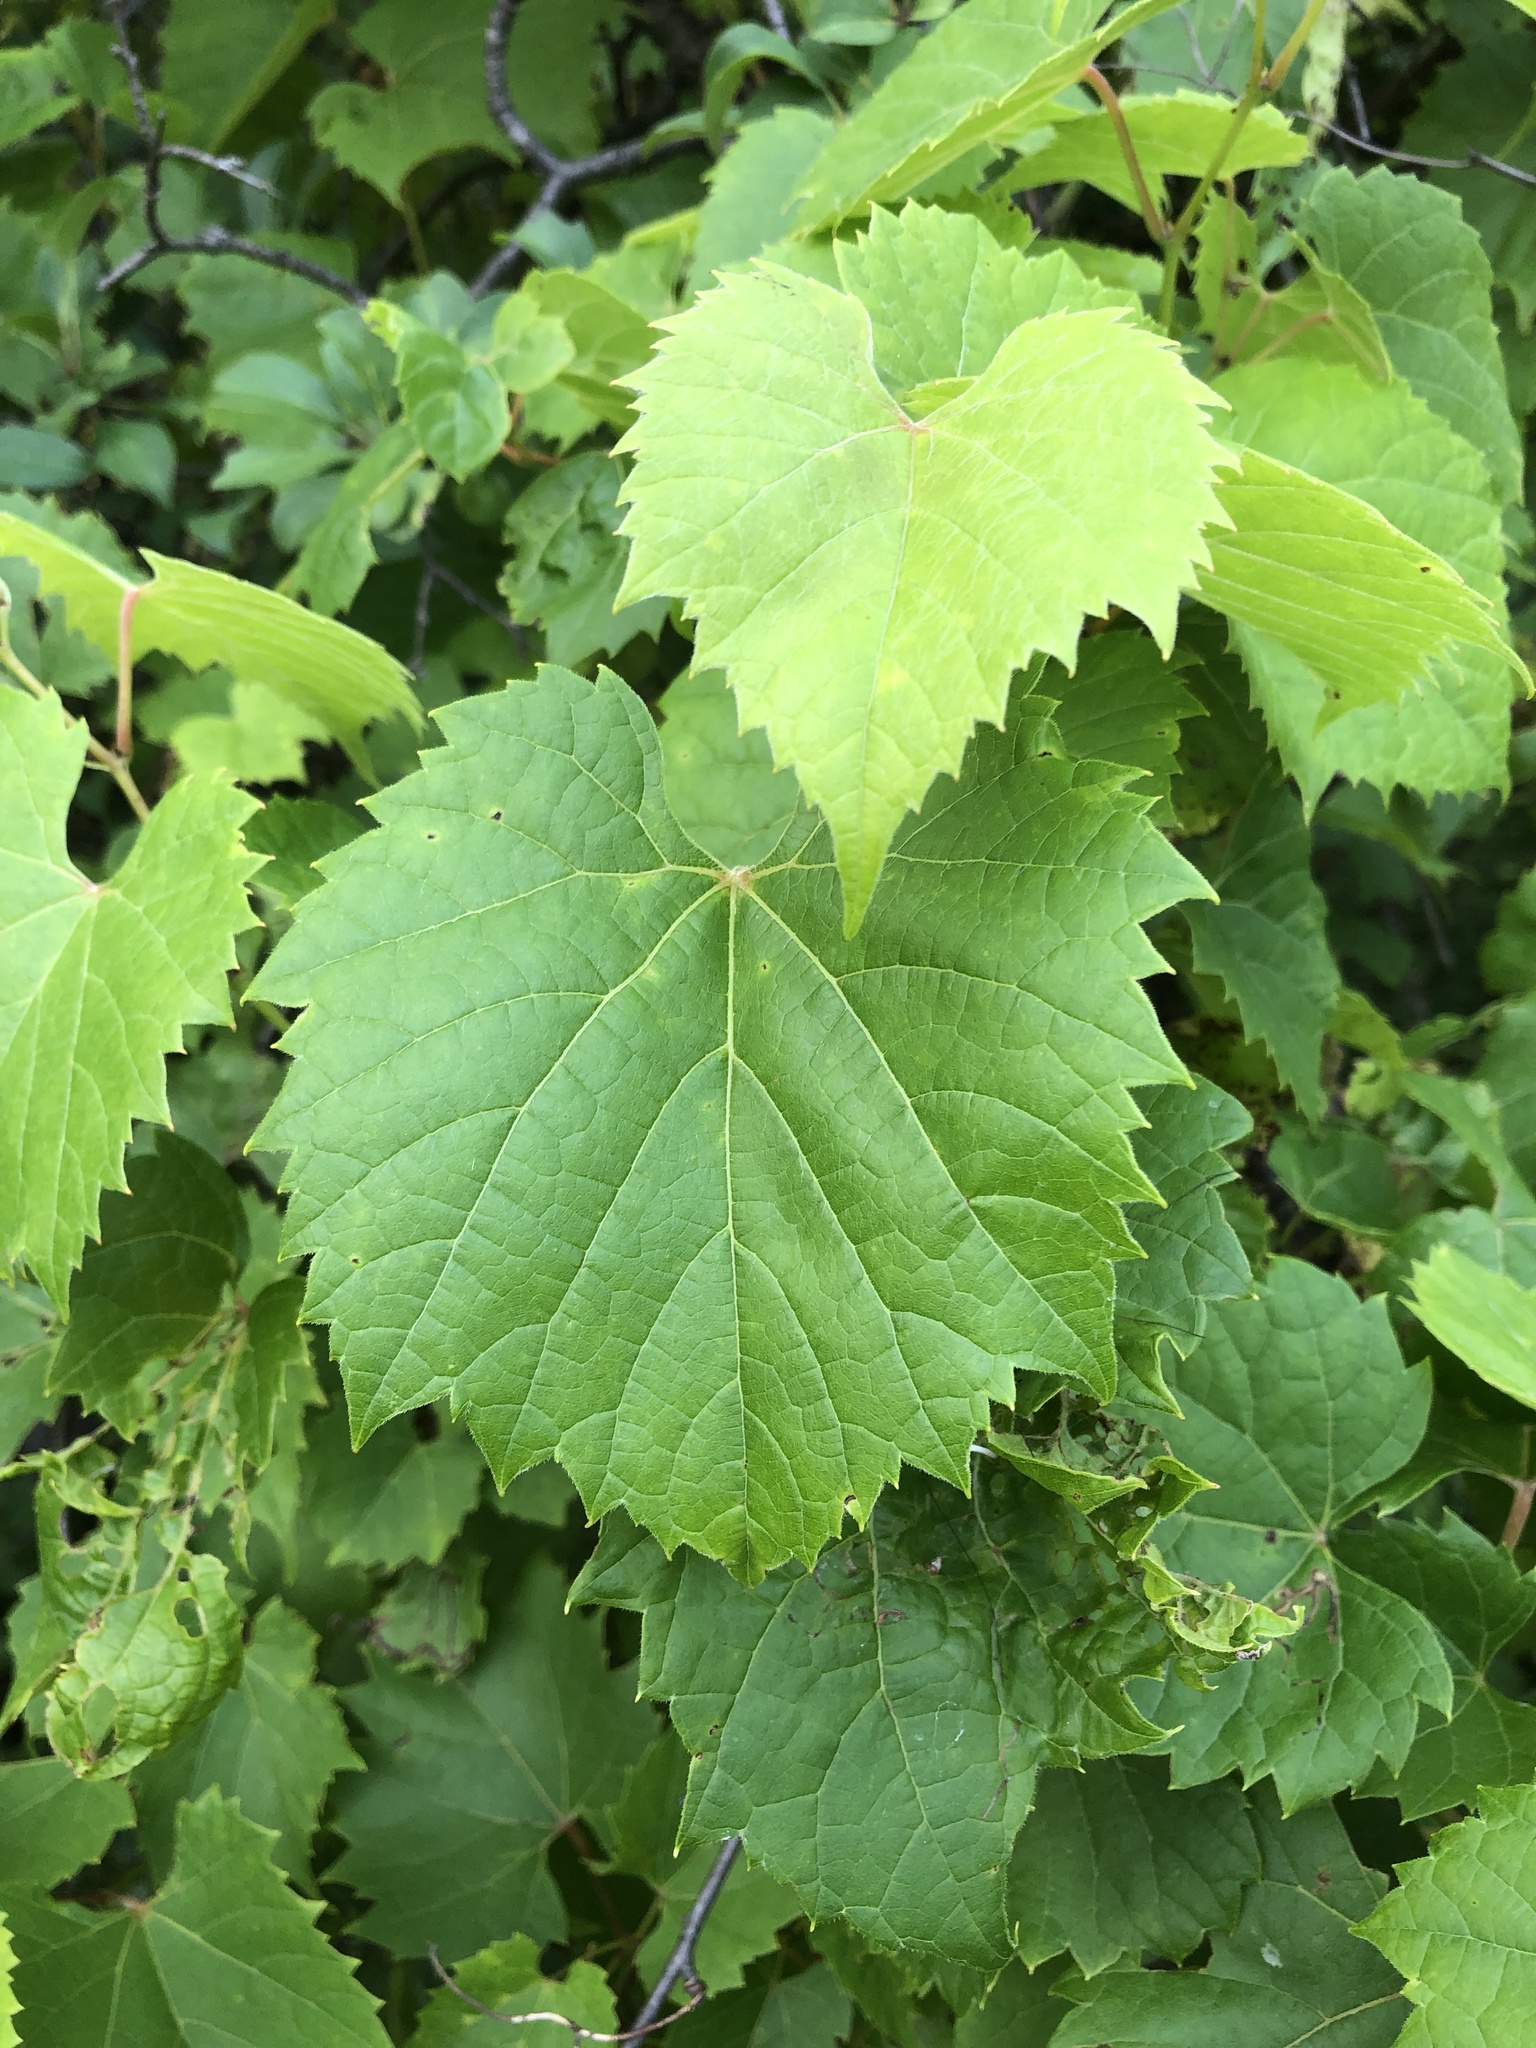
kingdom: Plantae
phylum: Tracheophyta
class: Magnoliopsida
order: Vitales
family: Vitaceae
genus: Vitis
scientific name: Vitis riparia
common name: Frost grape
